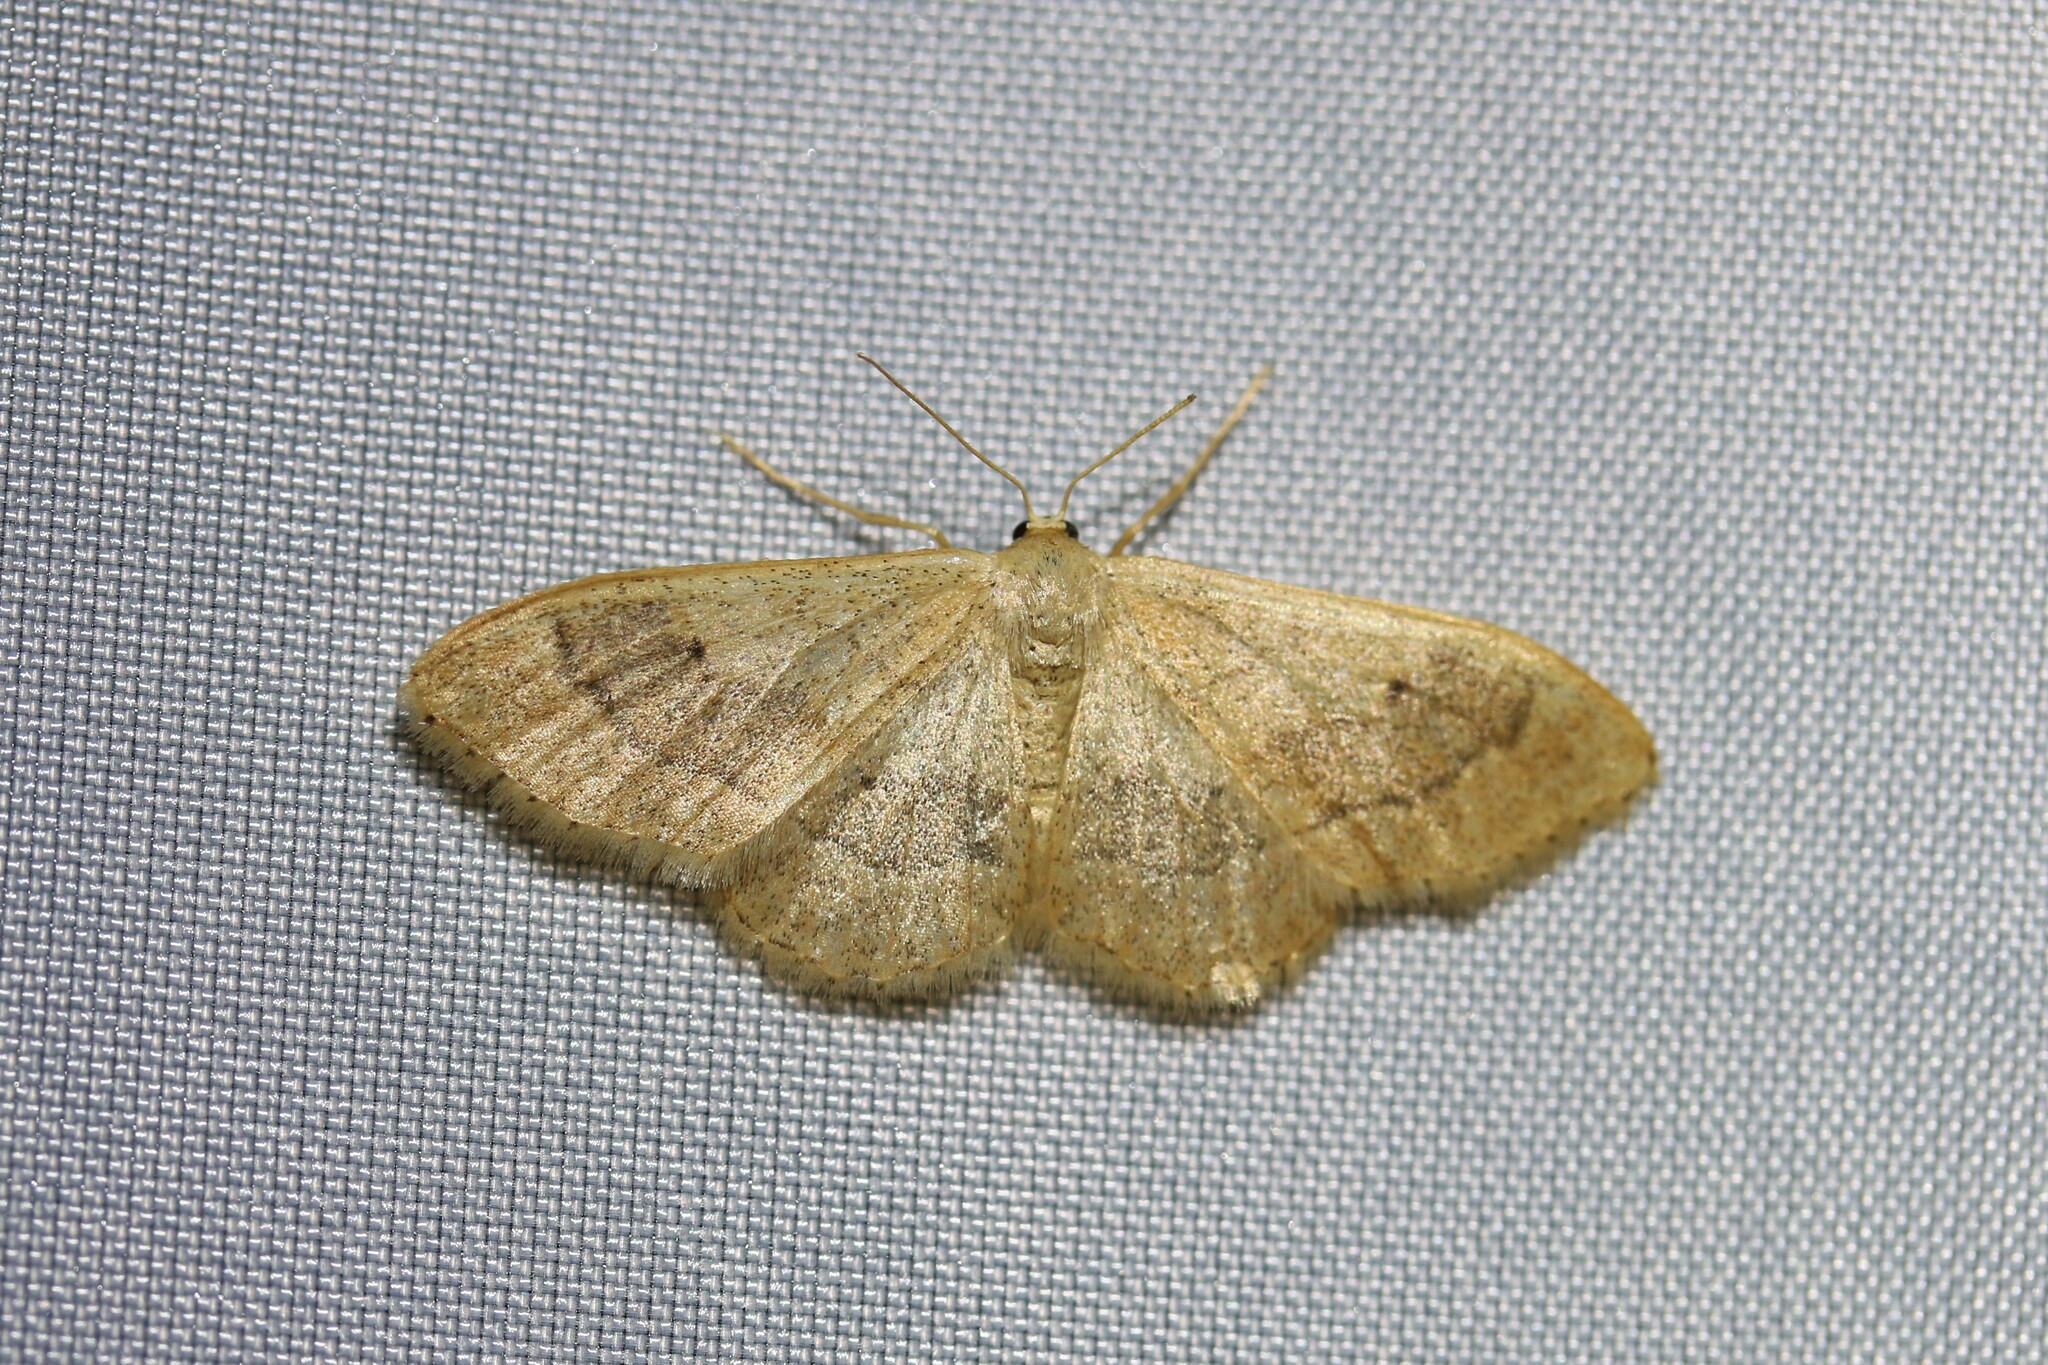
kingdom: Animalia
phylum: Arthropoda
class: Insecta
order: Lepidoptera
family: Geometridae
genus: Idaea
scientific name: Idaea aversata
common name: Riband wave
